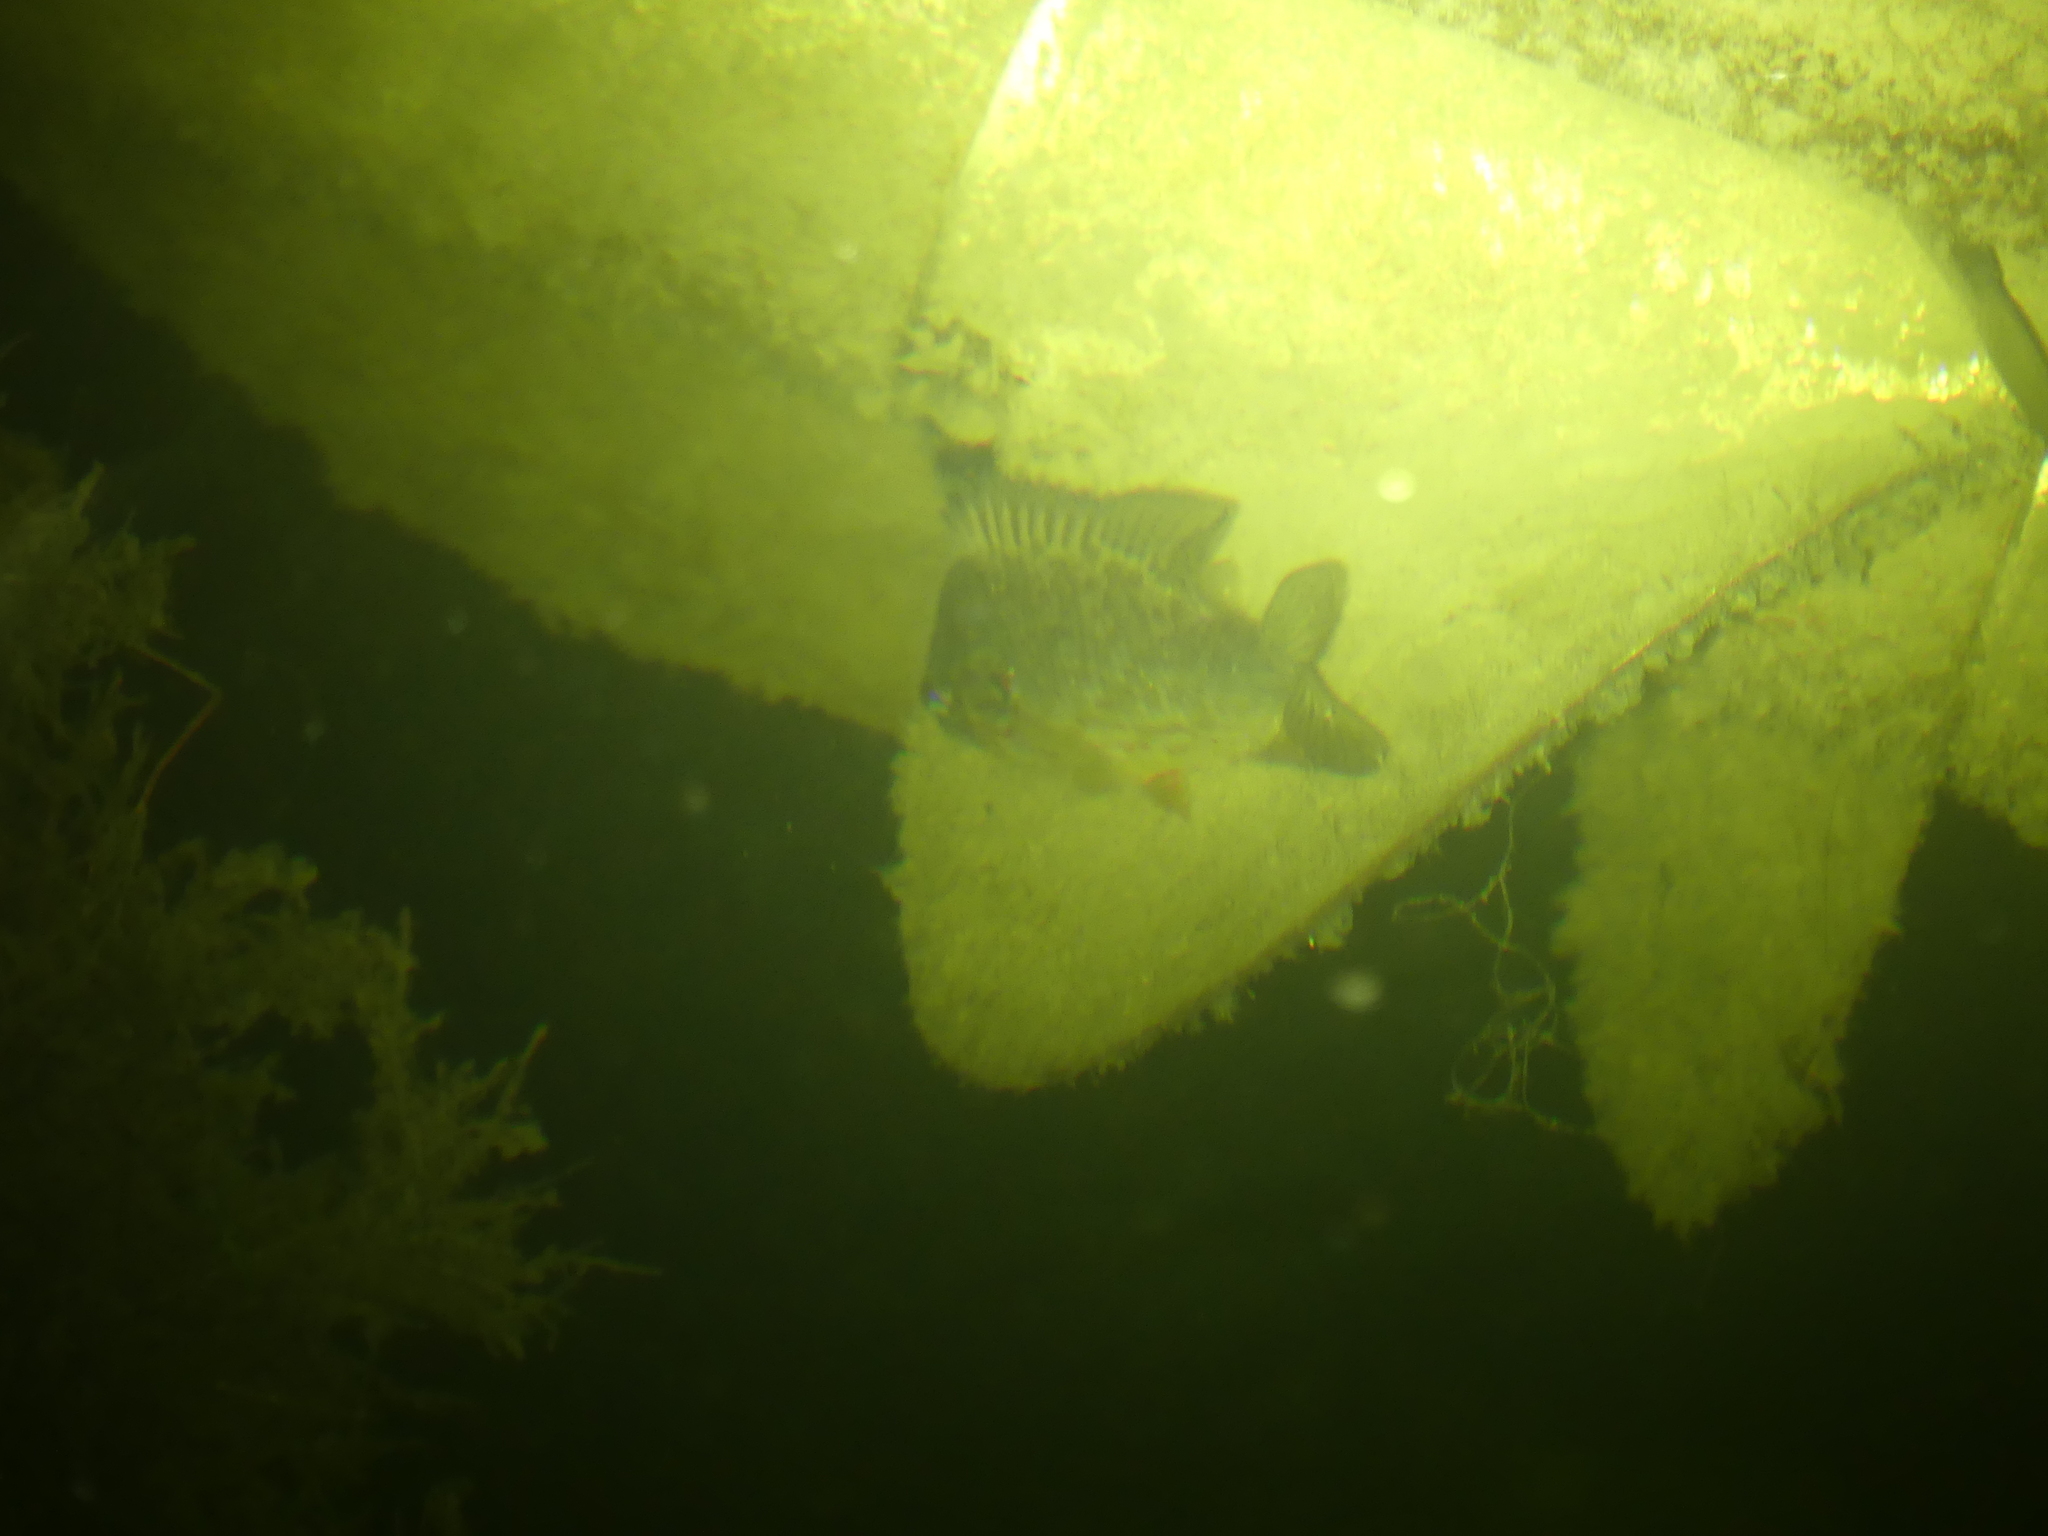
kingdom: Animalia
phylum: Chordata
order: Perciformes
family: Centrarchidae
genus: Lepomis
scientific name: Lepomis gibbosus
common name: Pumpkinseed
